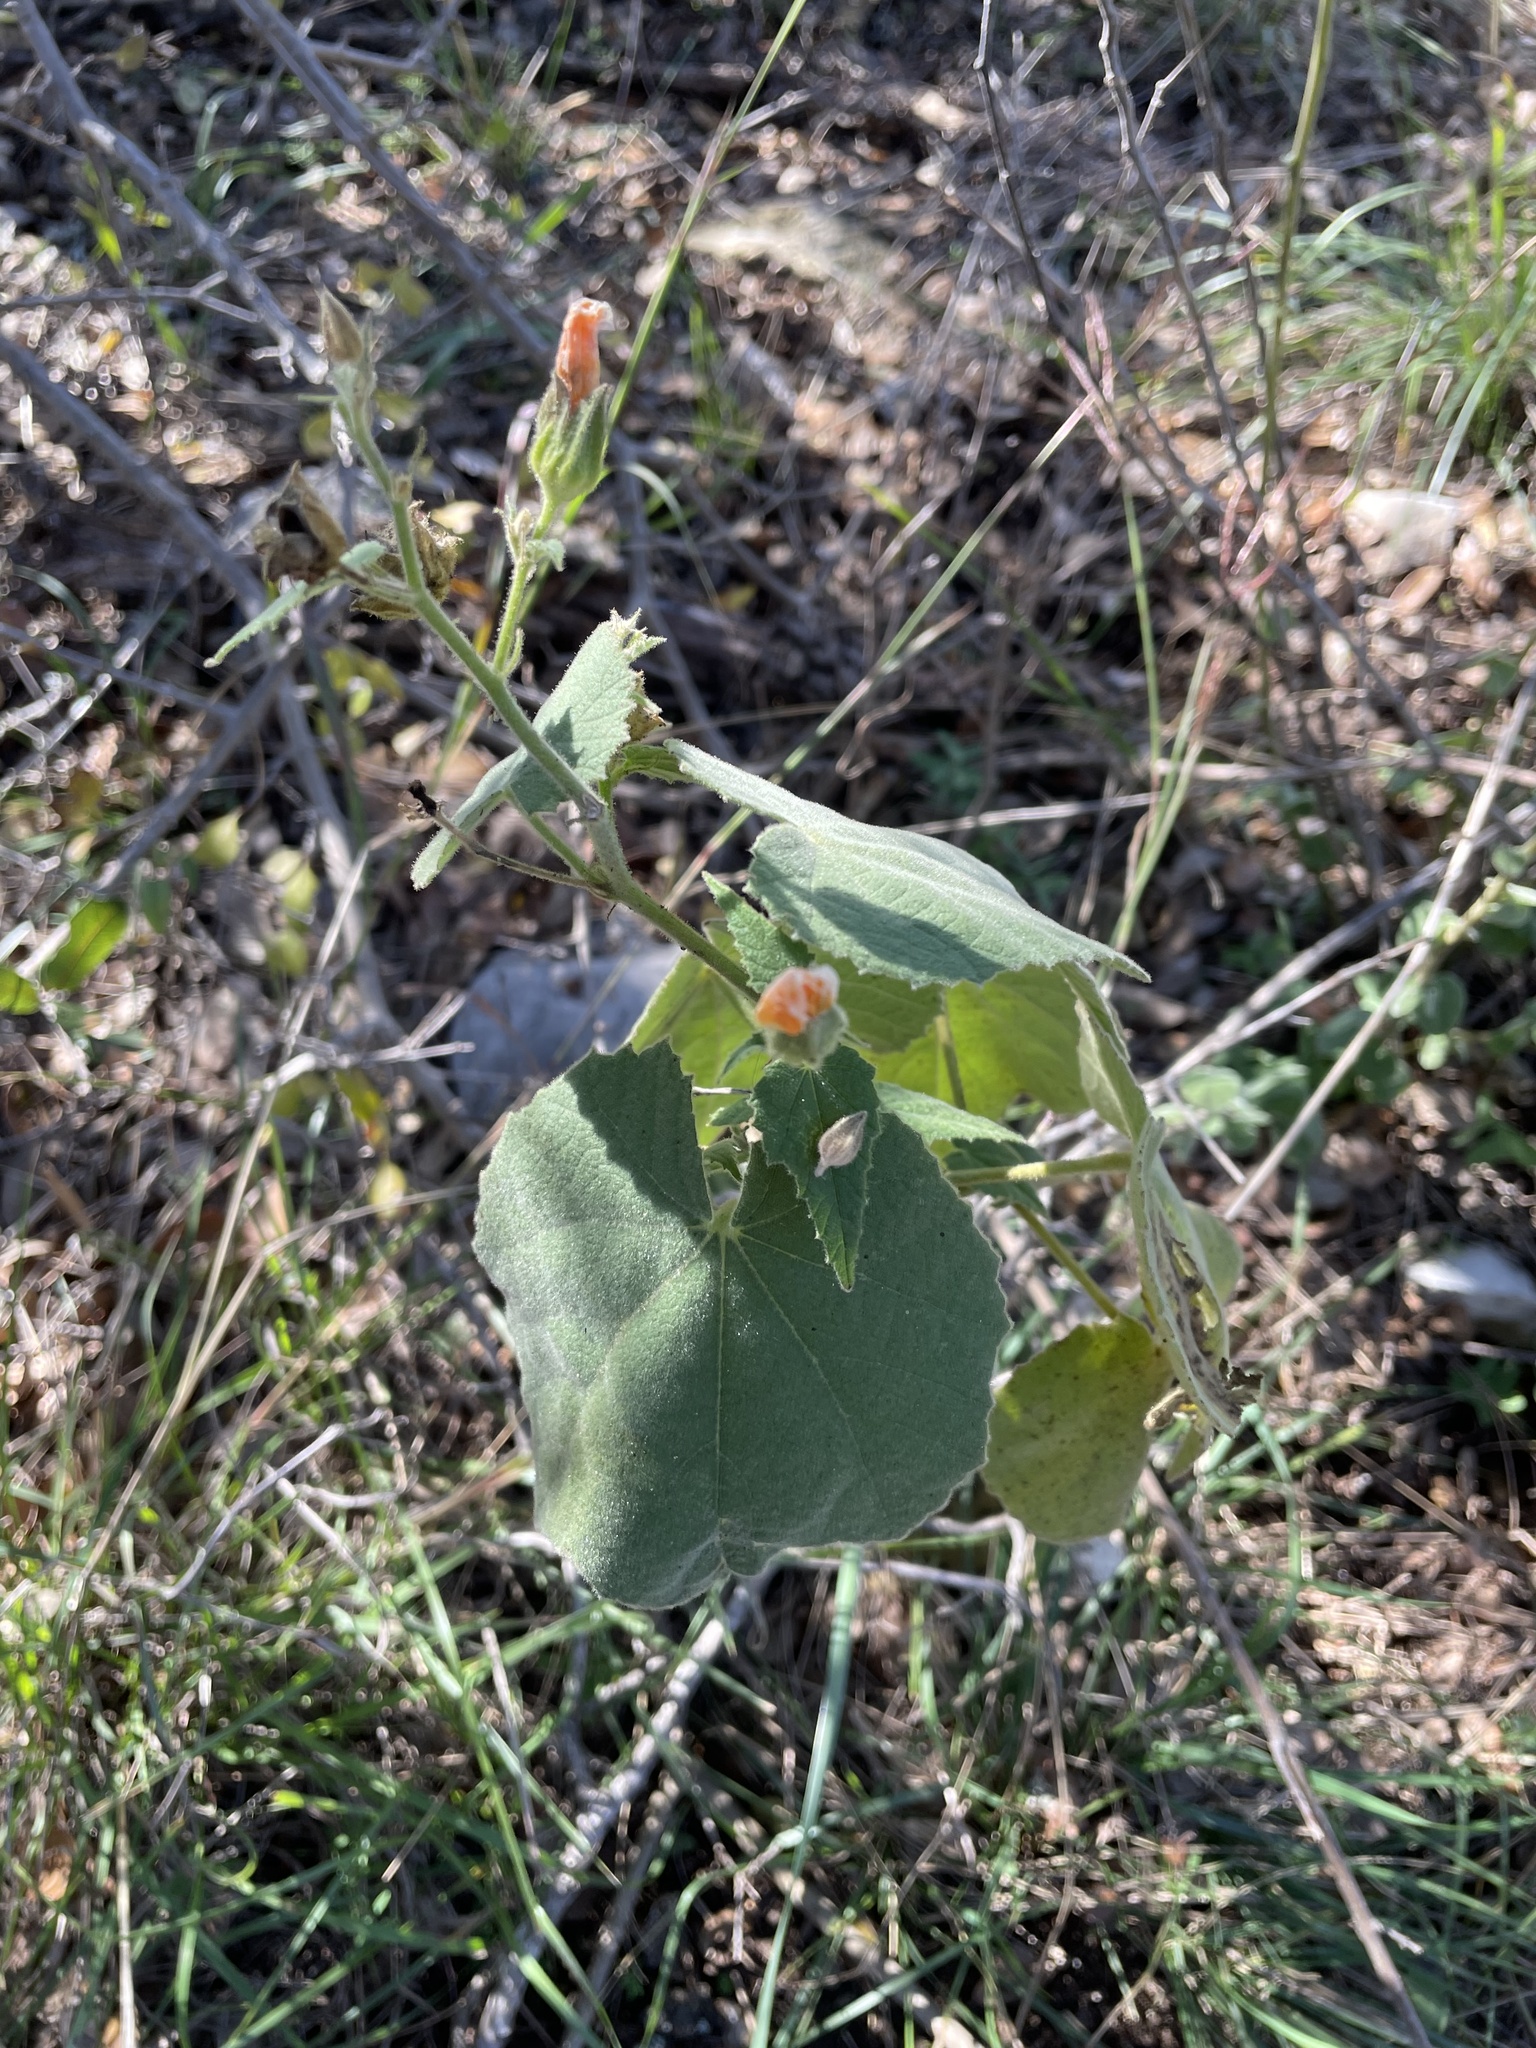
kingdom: Plantae
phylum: Tracheophyta
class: Magnoliopsida
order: Malvales
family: Malvaceae
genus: Allowissadula
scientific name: Allowissadula holosericea
